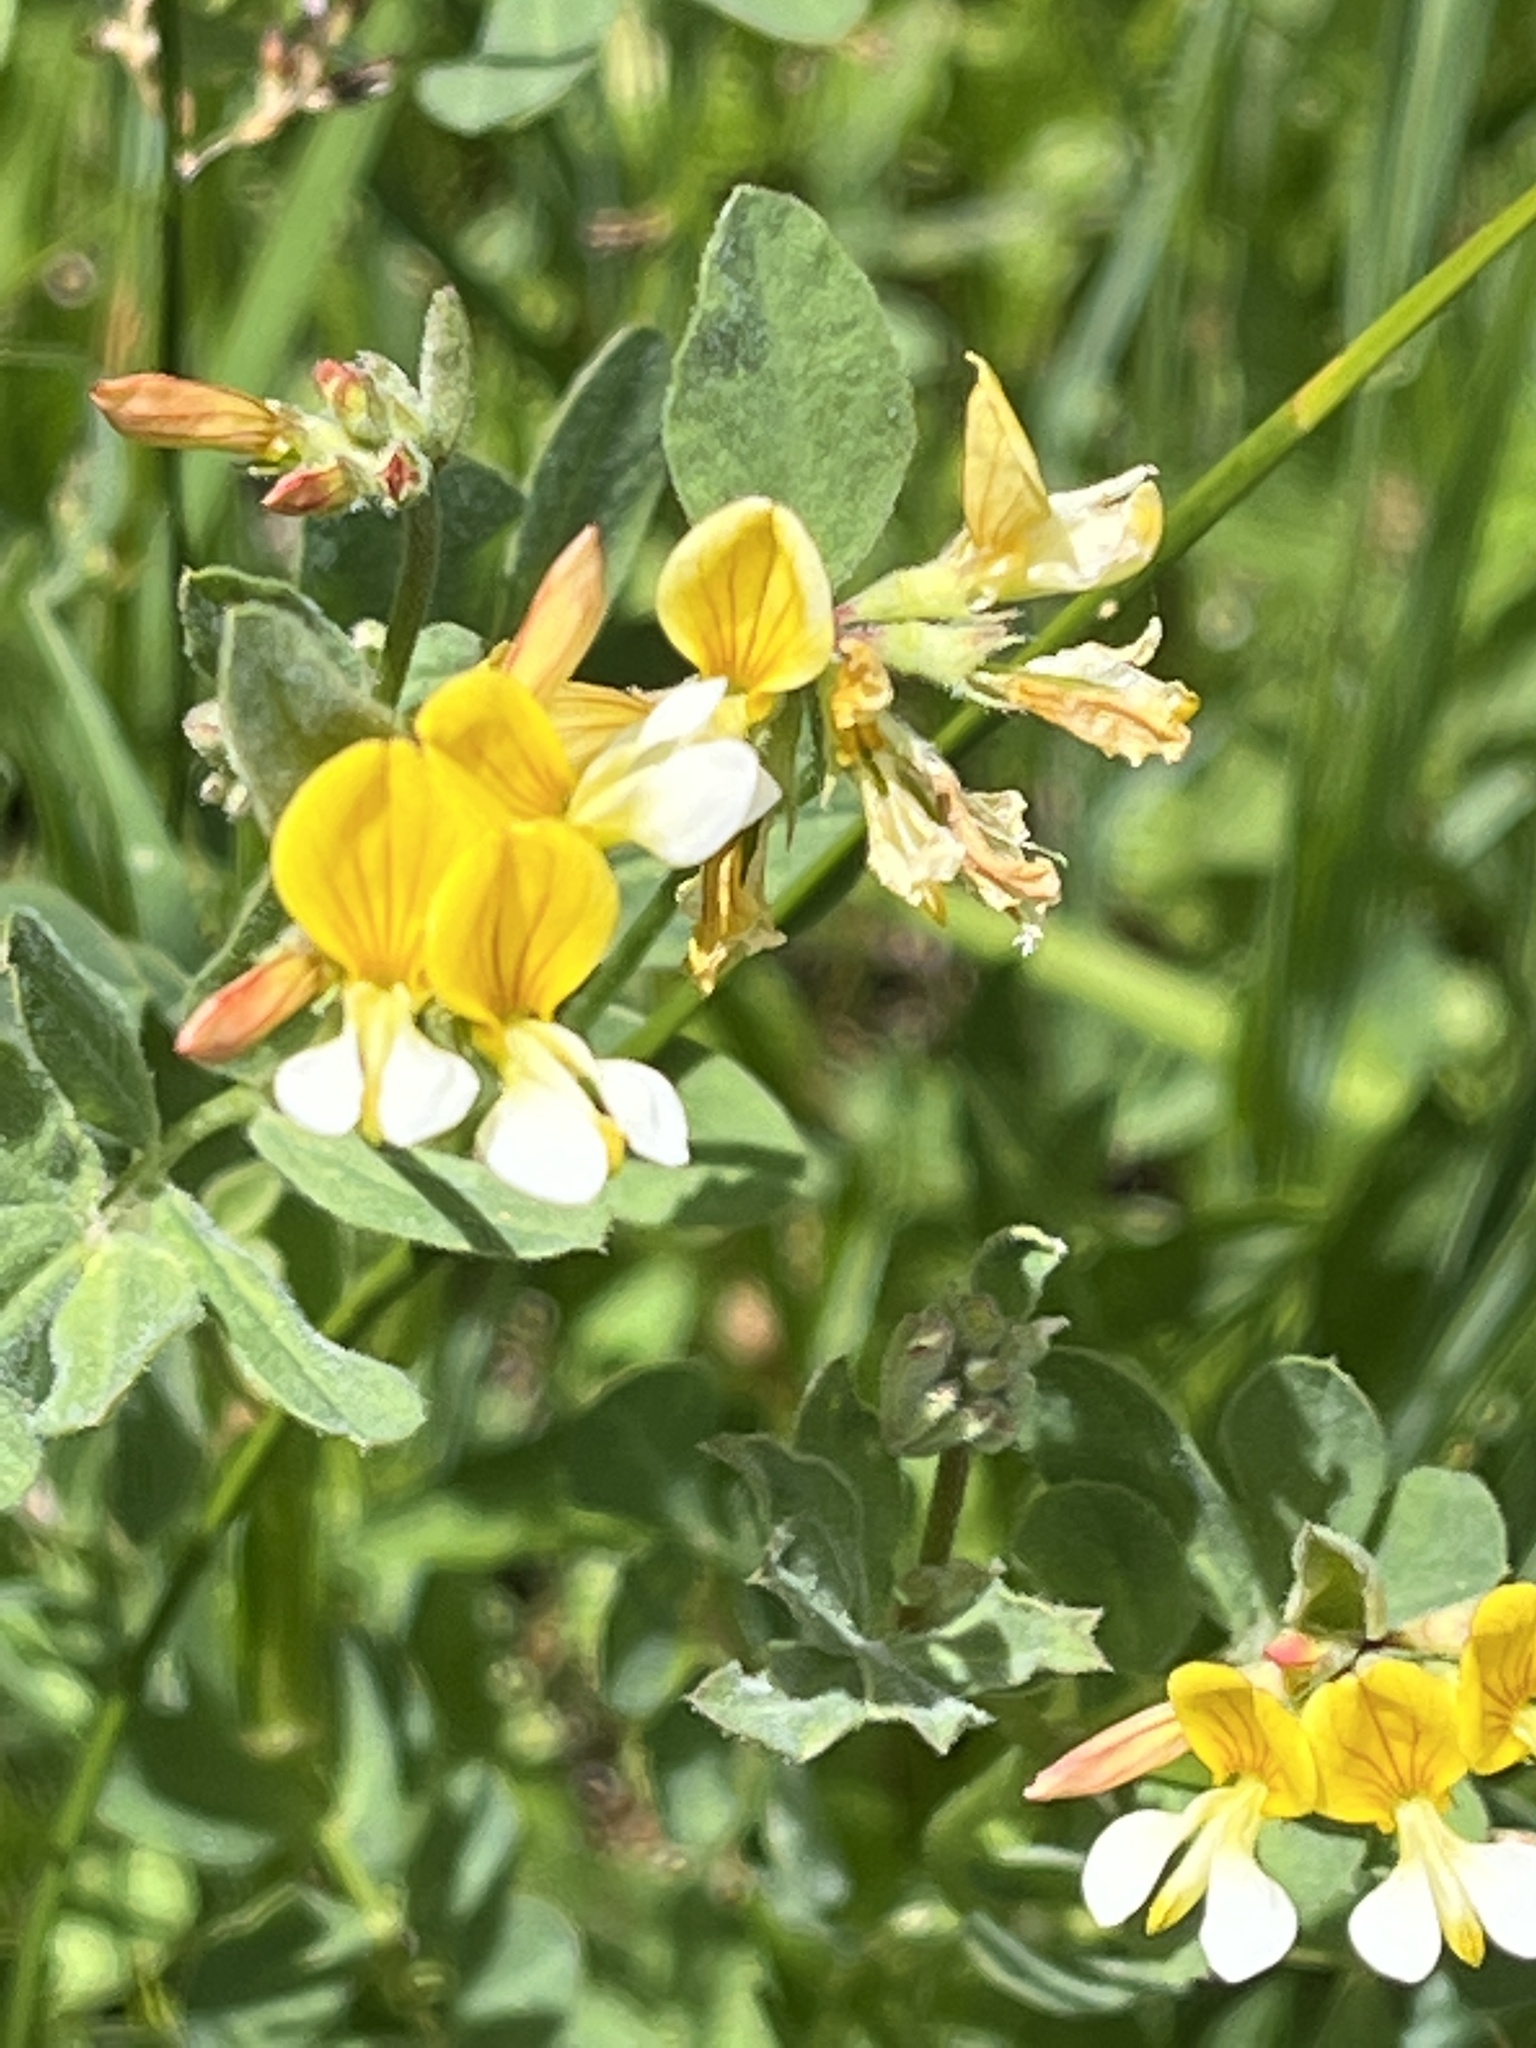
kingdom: Plantae
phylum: Tracheophyta
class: Magnoliopsida
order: Fabales
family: Fabaceae
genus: Hosackia
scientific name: Hosackia oblongifolia
